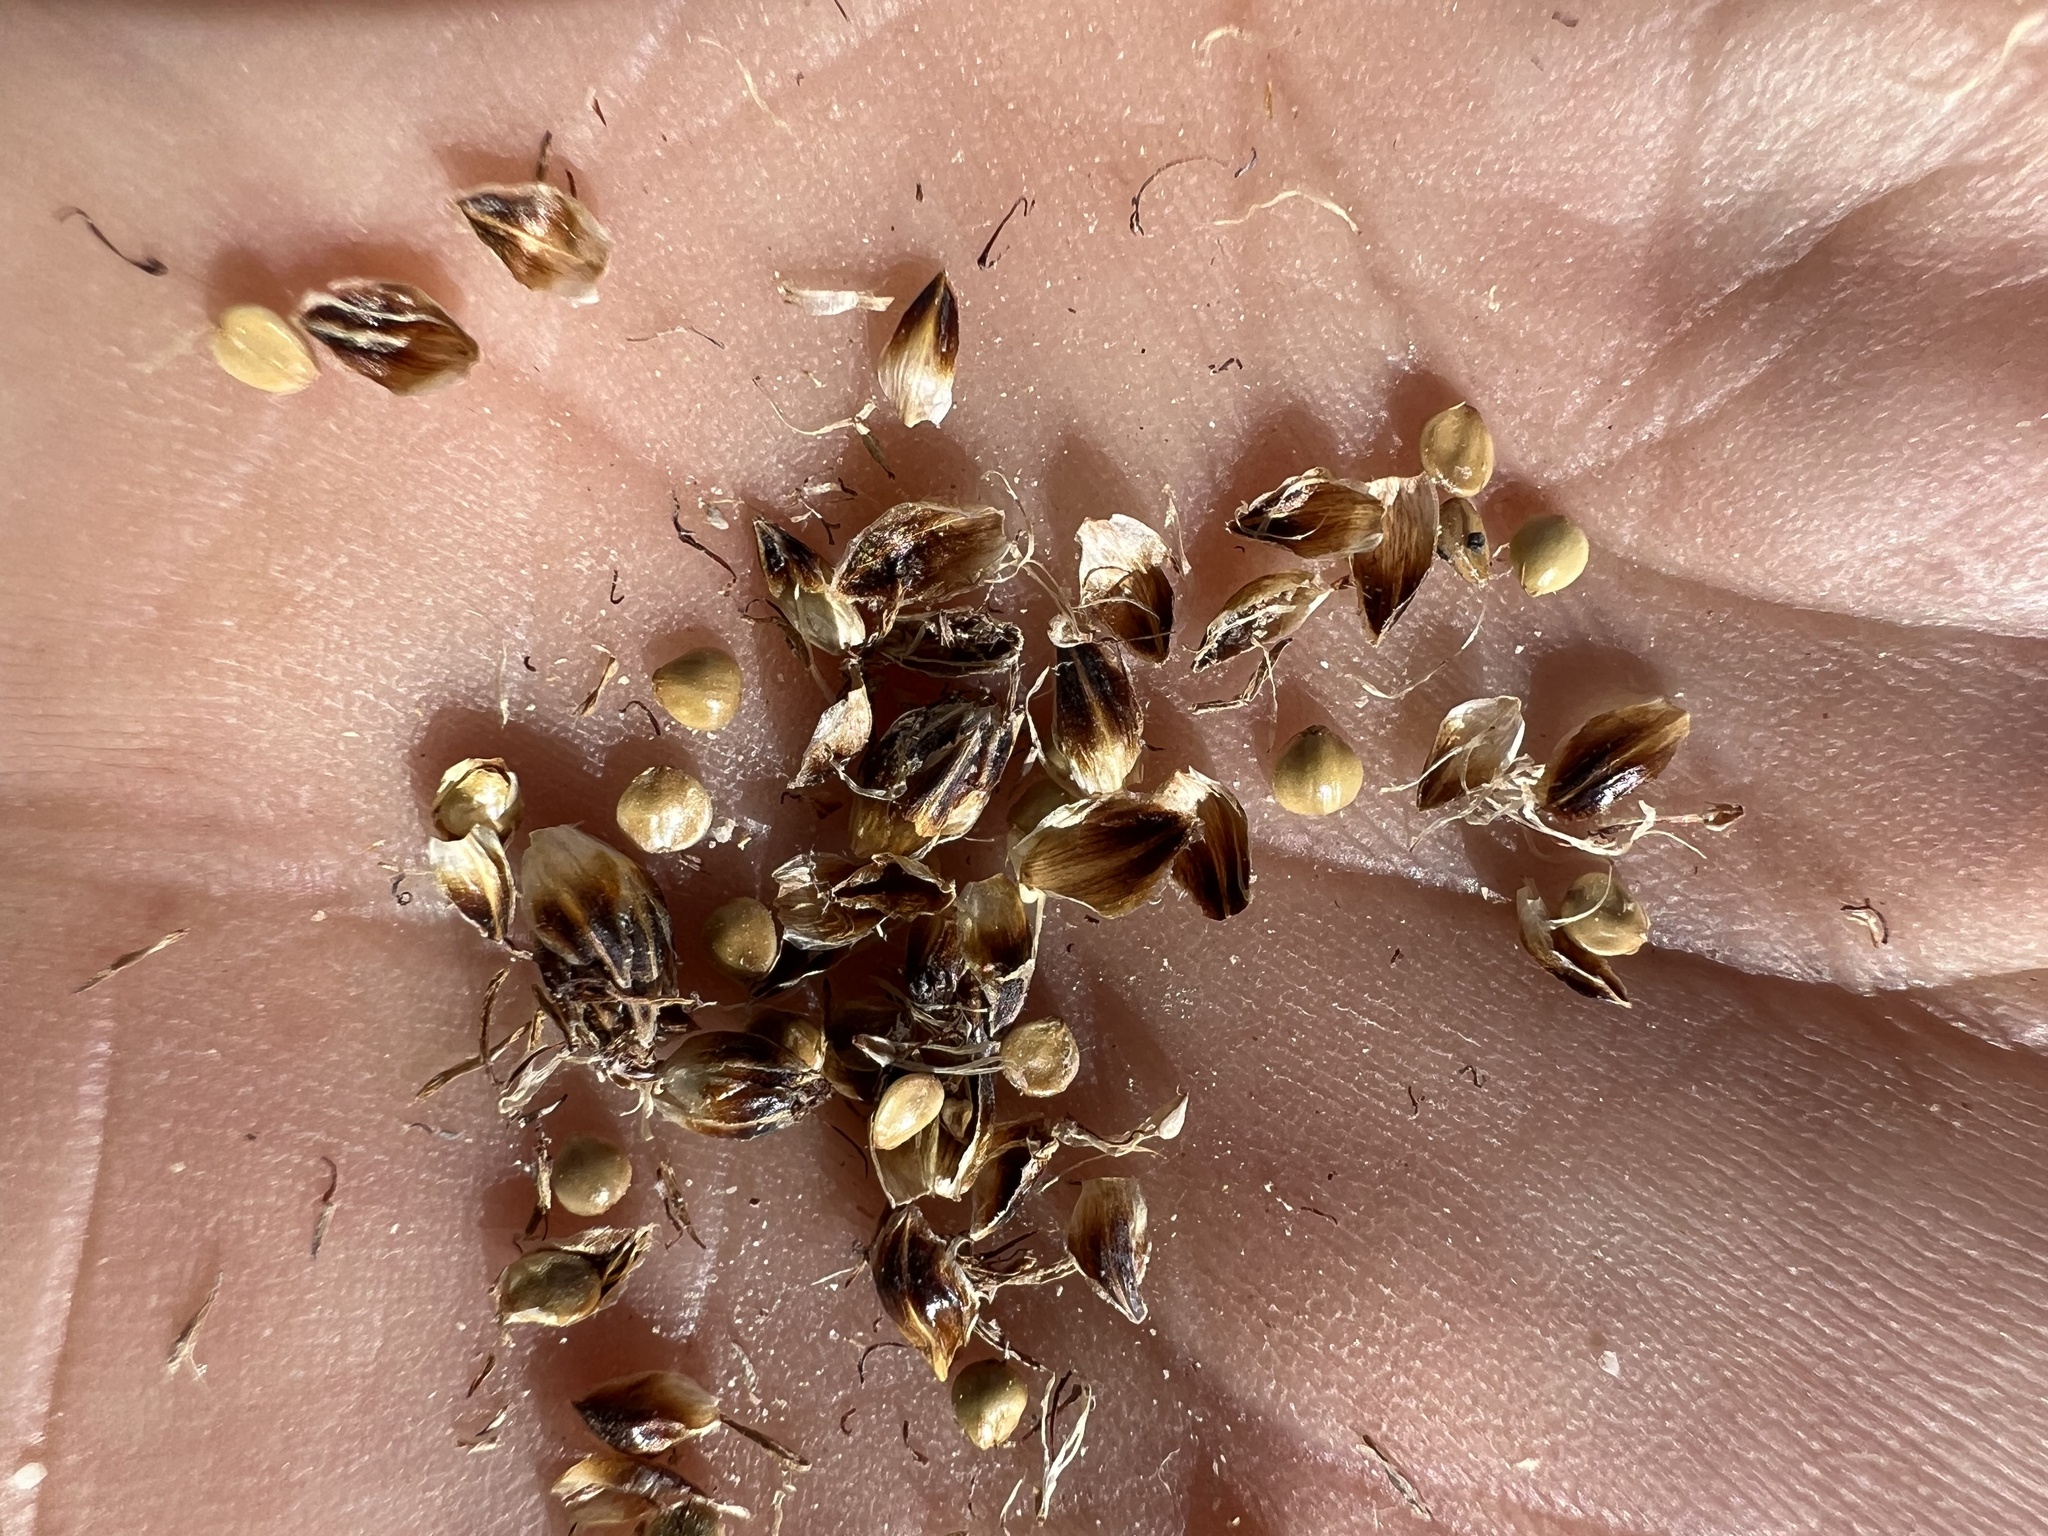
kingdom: Plantae
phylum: Tracheophyta
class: Liliopsida
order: Poales
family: Cyperaceae
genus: Amphiscirpus
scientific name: Amphiscirpus nevadensis
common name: Nevada bulrush
